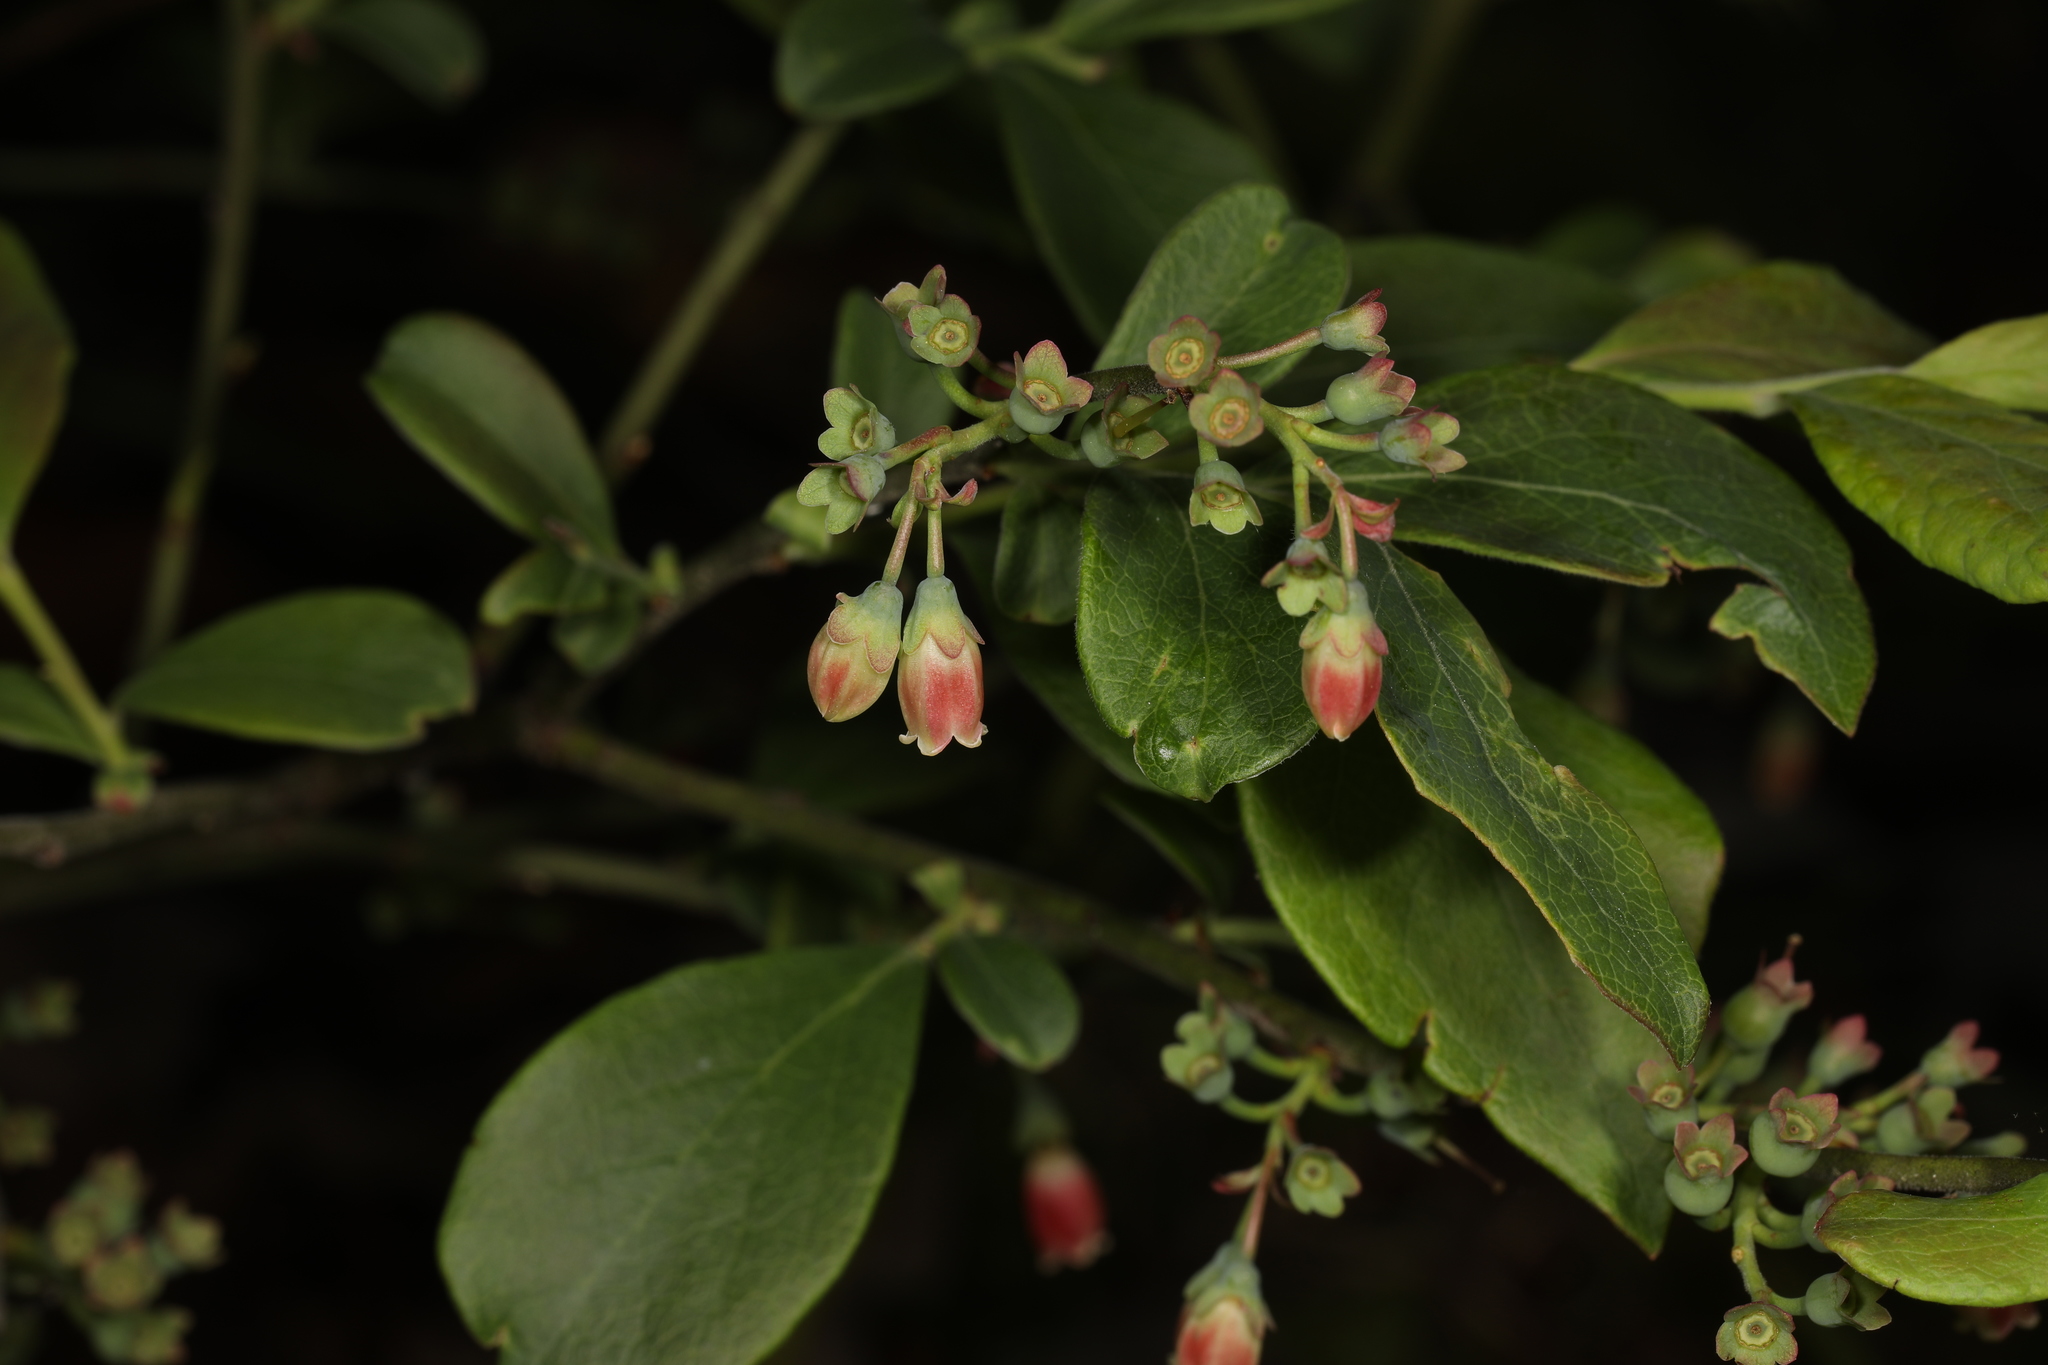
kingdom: Plantae
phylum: Tracheophyta
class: Magnoliopsida
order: Ericales
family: Ericaceae
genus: Gaylussacia
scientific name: Gaylussacia baccata
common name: Black huckleberry
